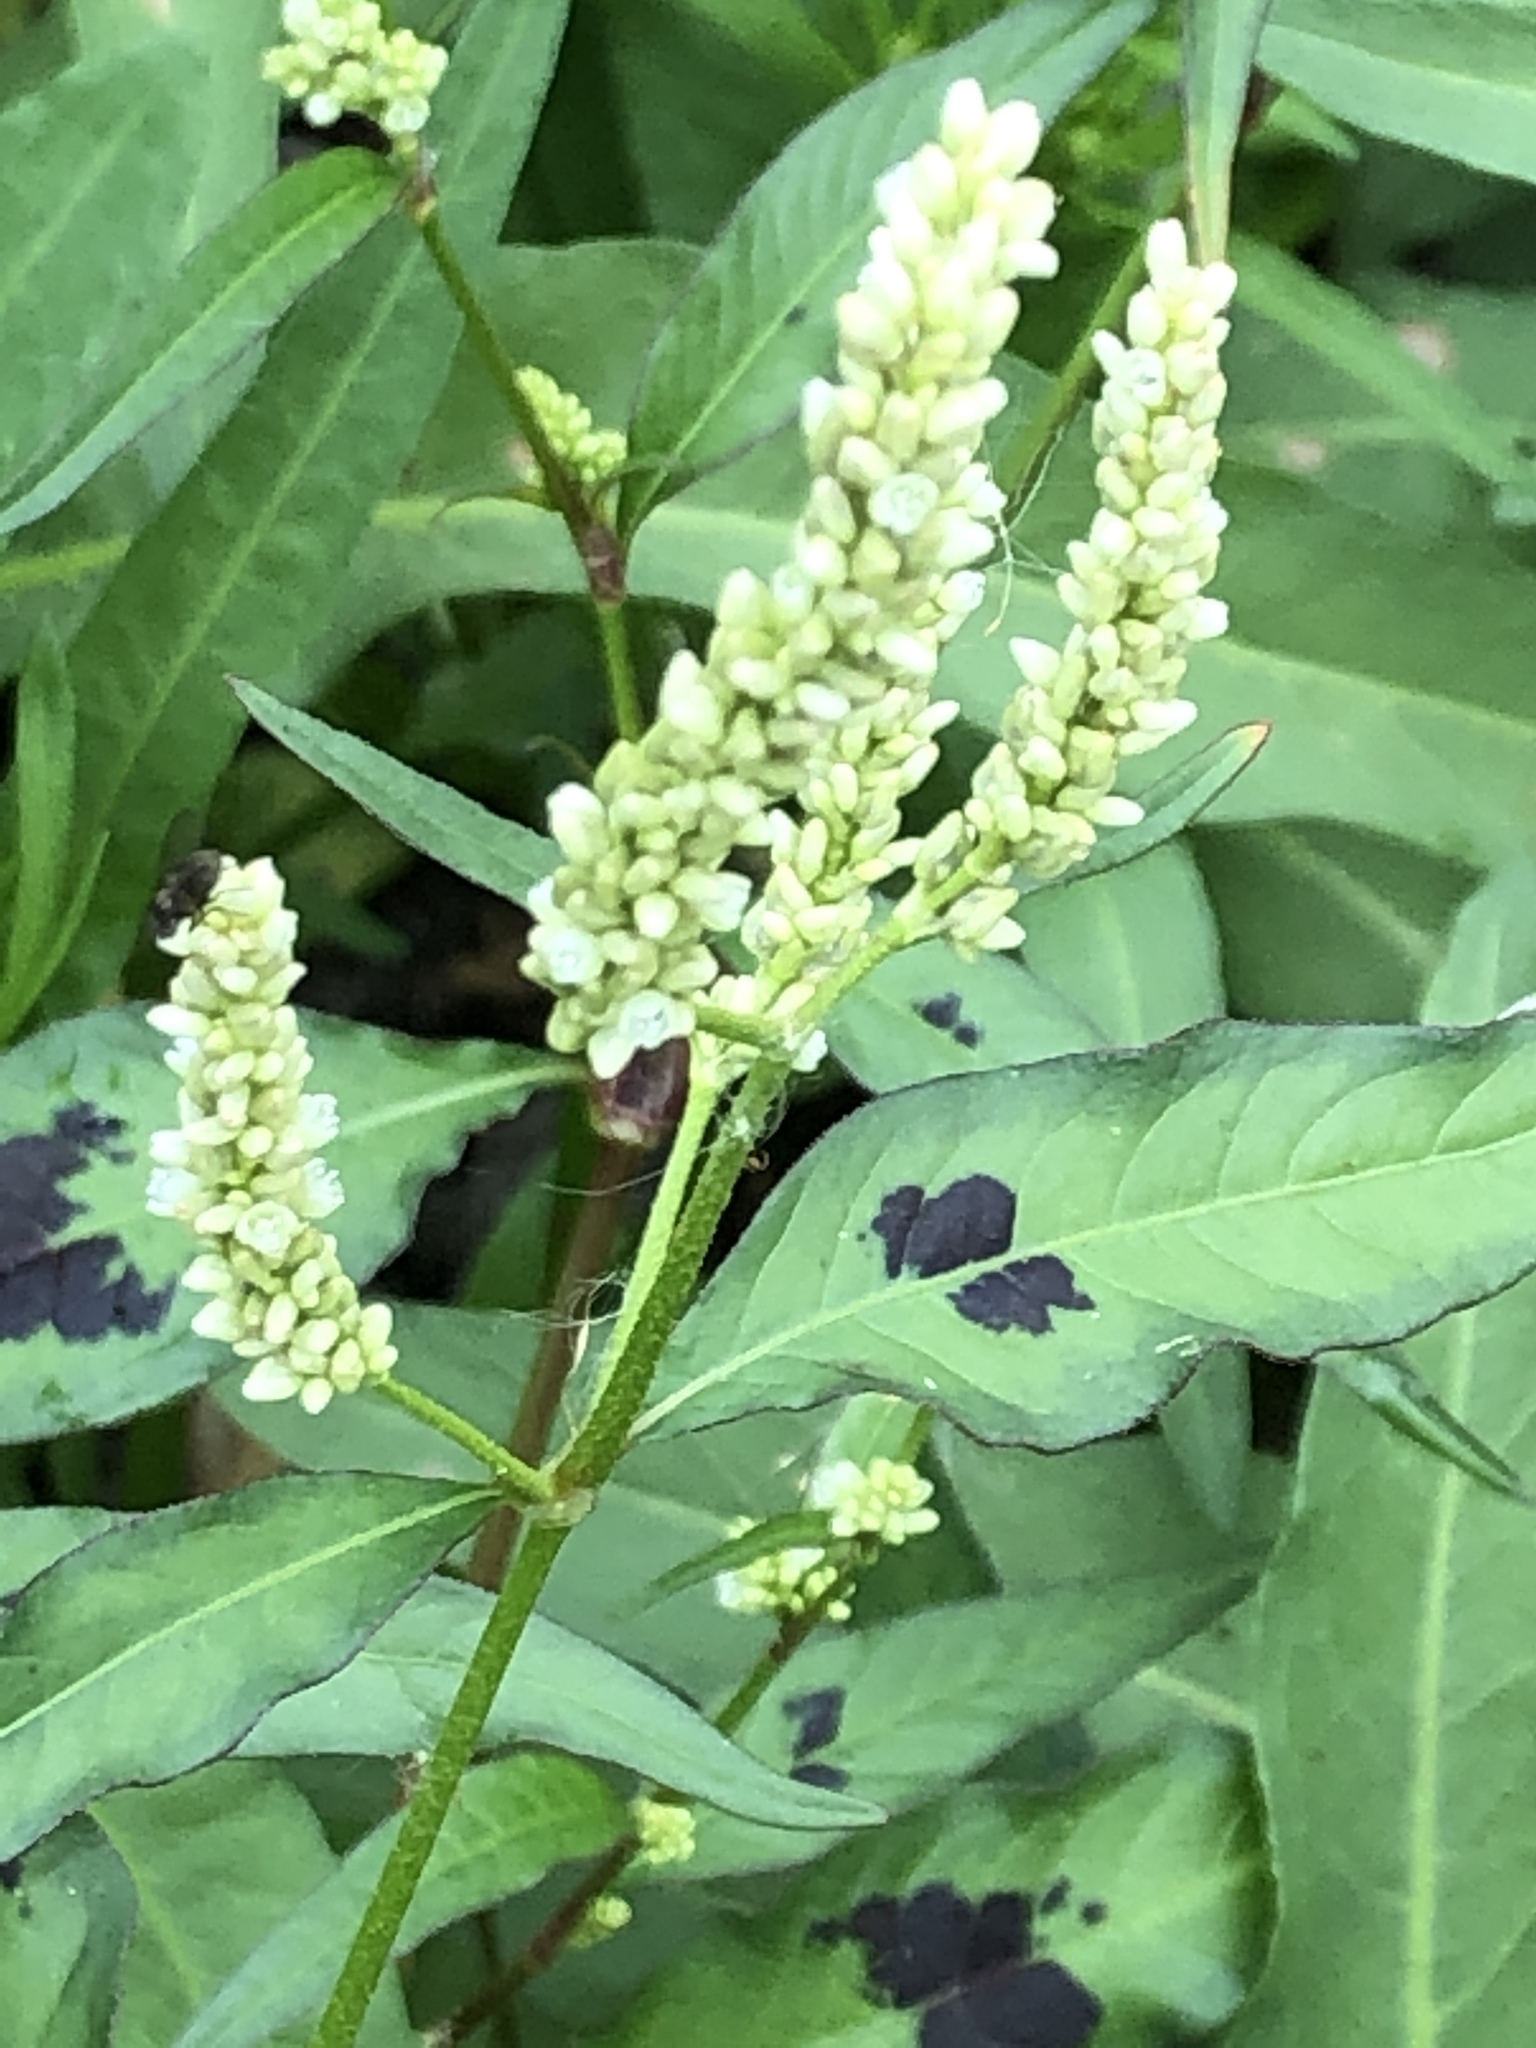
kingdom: Plantae
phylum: Tracheophyta
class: Magnoliopsida
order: Caryophyllales
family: Polygonaceae
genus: Persicaria
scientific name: Persicaria lapathifolia
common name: Curlytop knotweed
